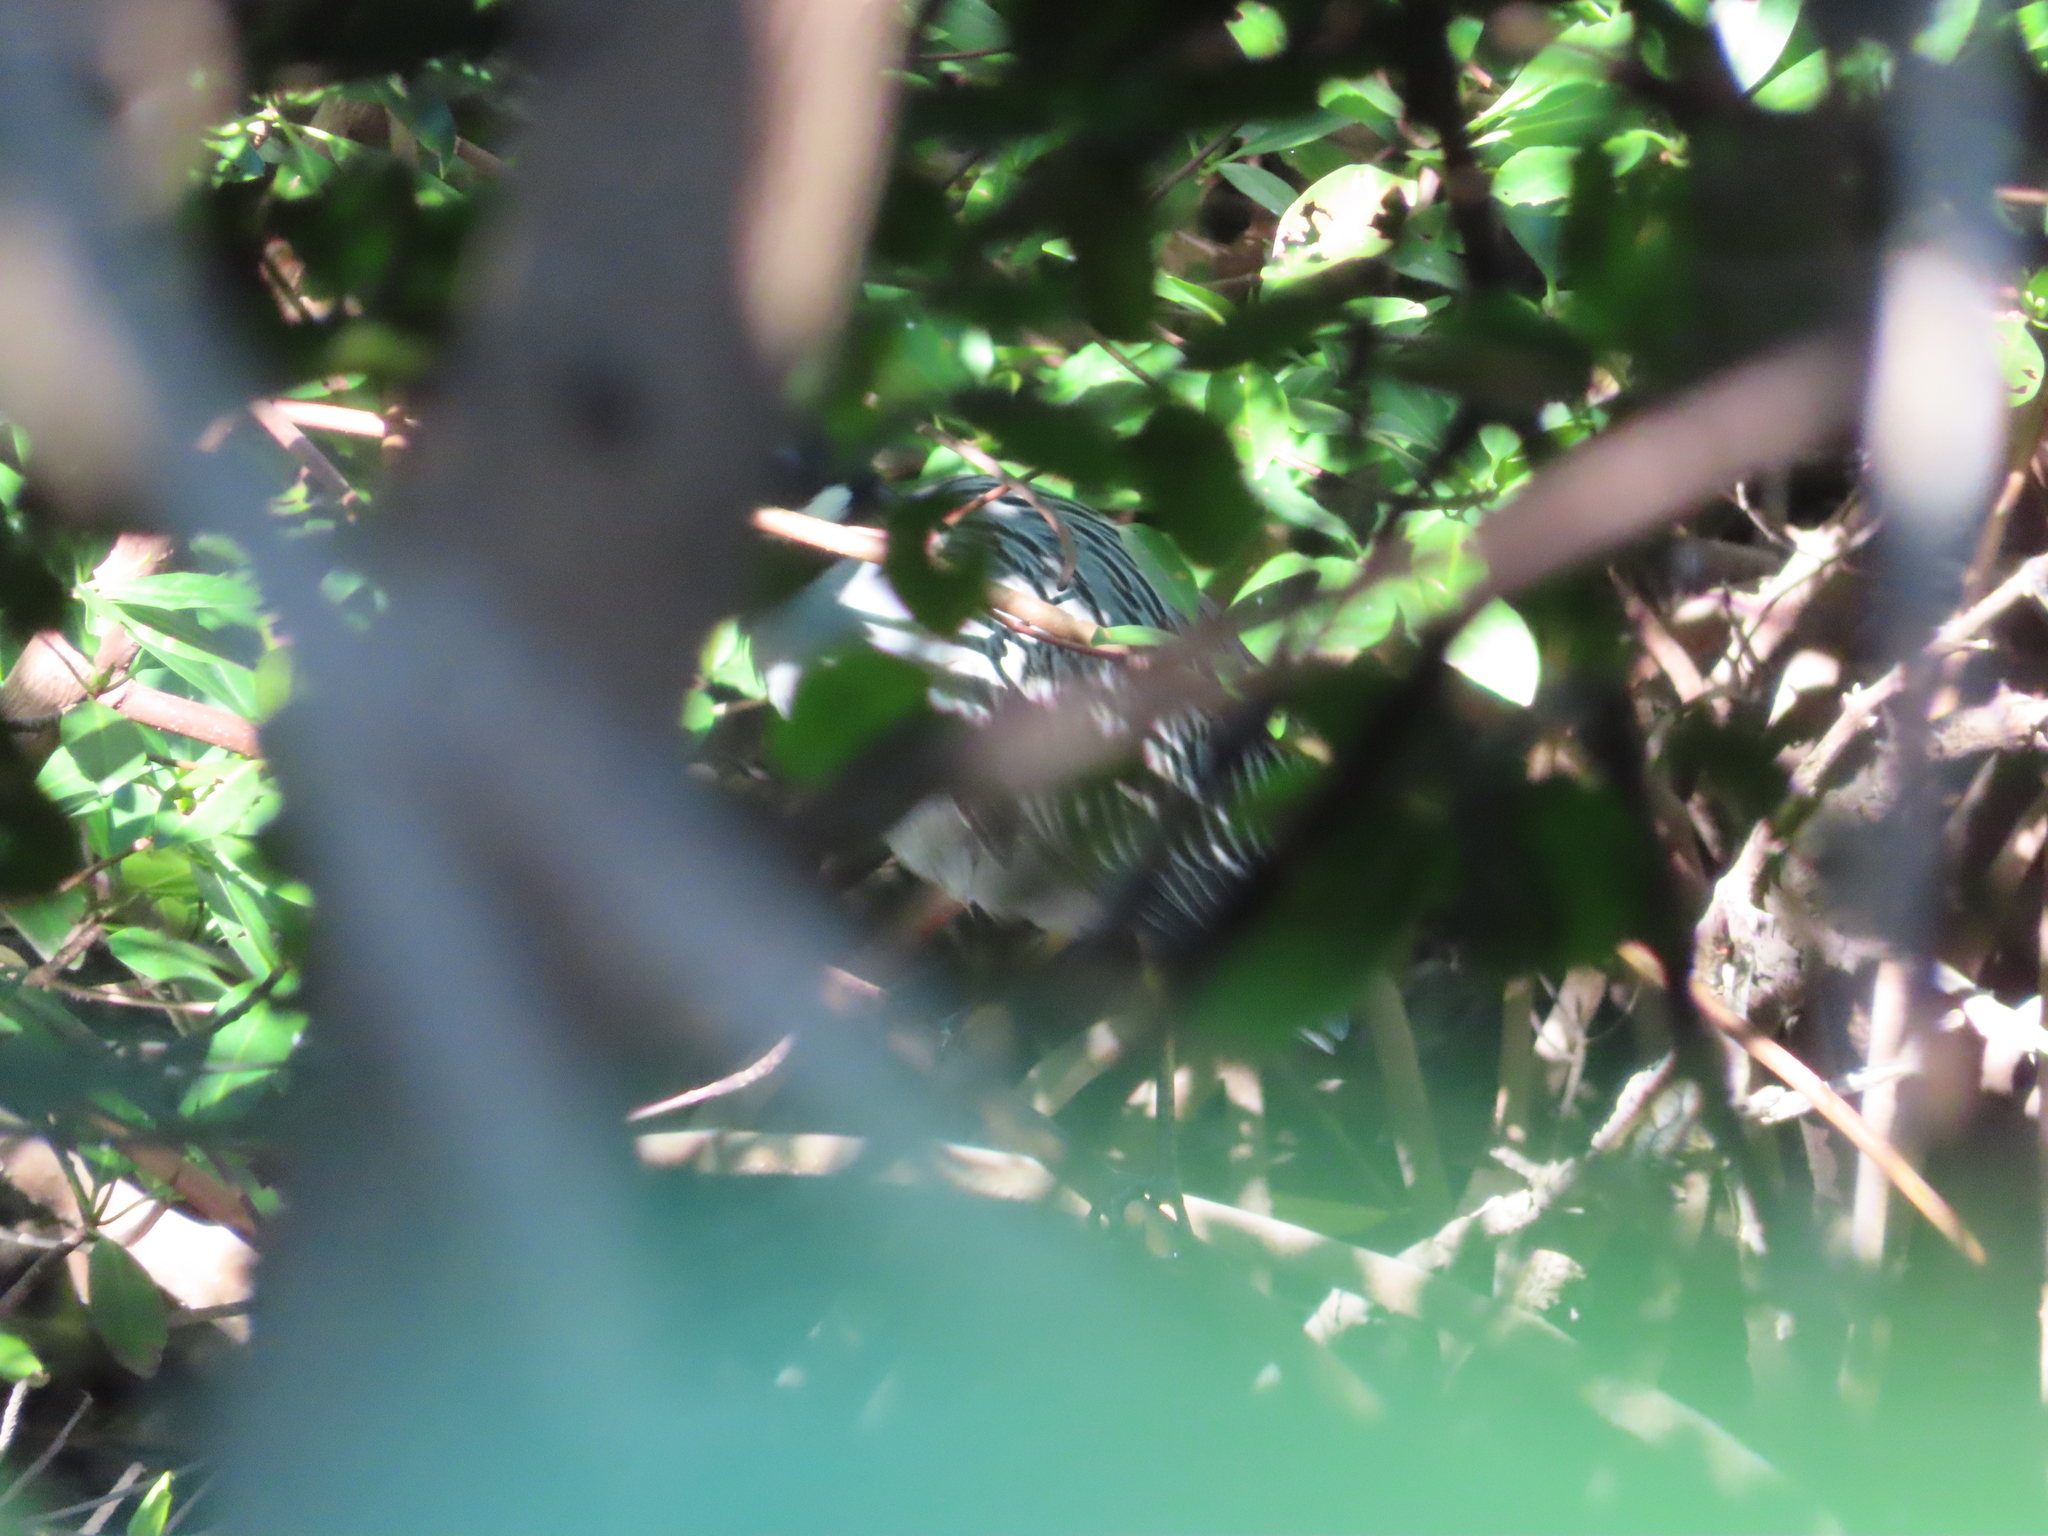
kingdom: Animalia
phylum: Chordata
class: Aves
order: Pelecaniformes
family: Ardeidae
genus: Nyctanassa
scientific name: Nyctanassa violacea
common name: Yellow-crowned night heron
